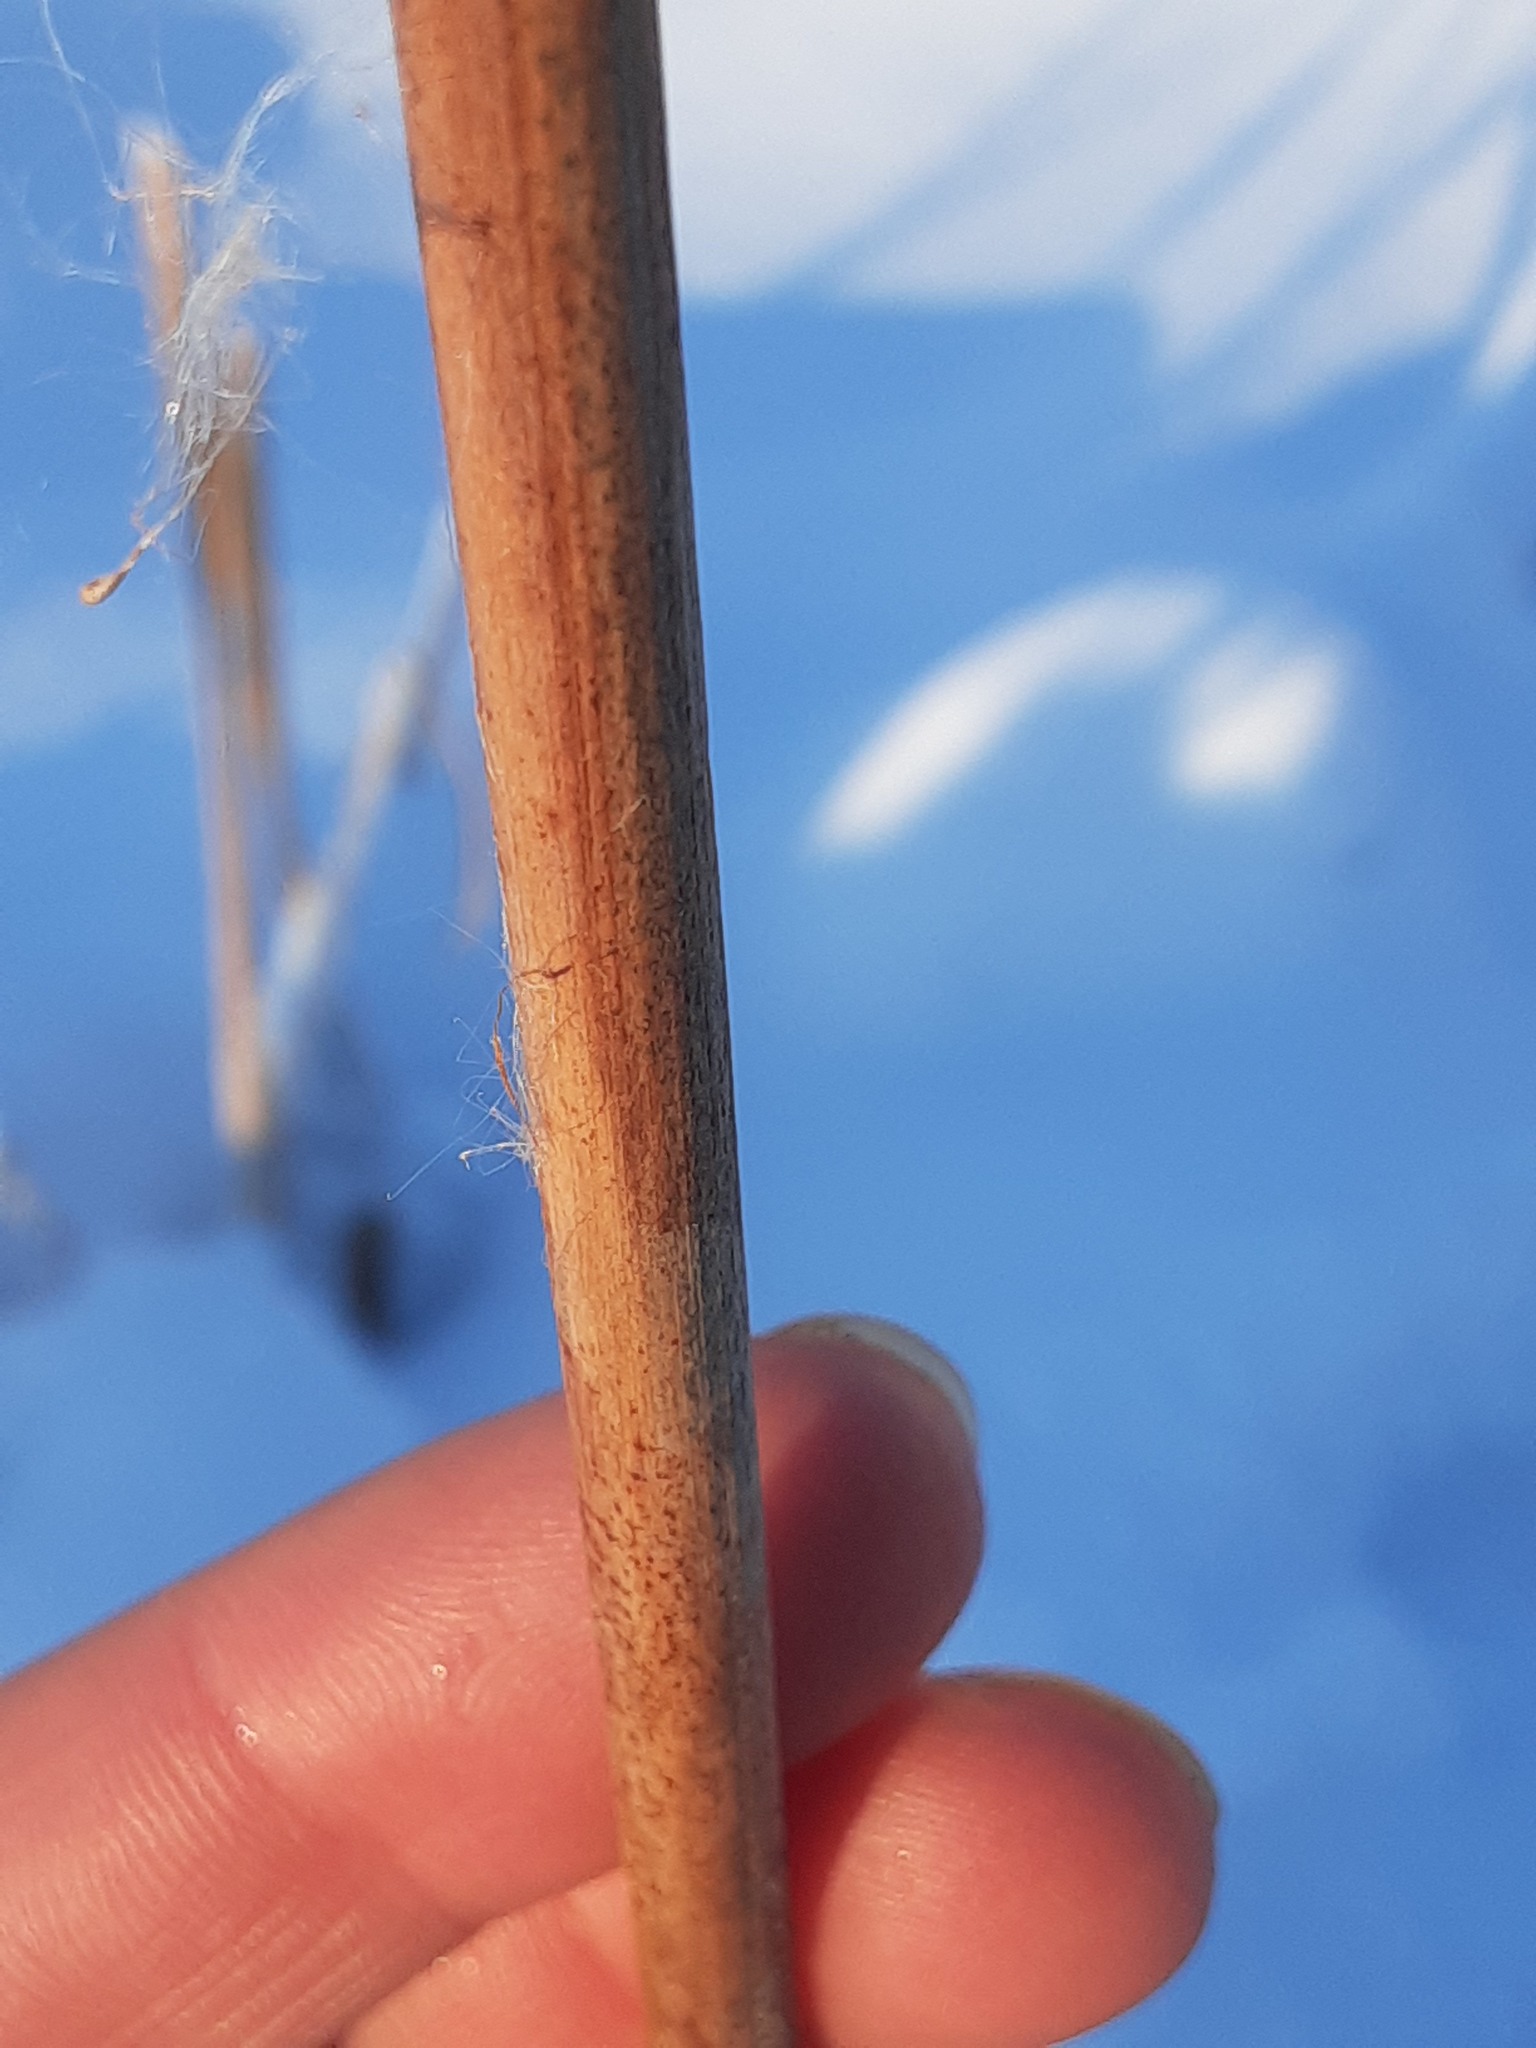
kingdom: Plantae
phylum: Tracheophyta
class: Liliopsida
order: Poales
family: Typhaceae
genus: Typha
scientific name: Typha latifolia
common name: Broadleaf cattail
